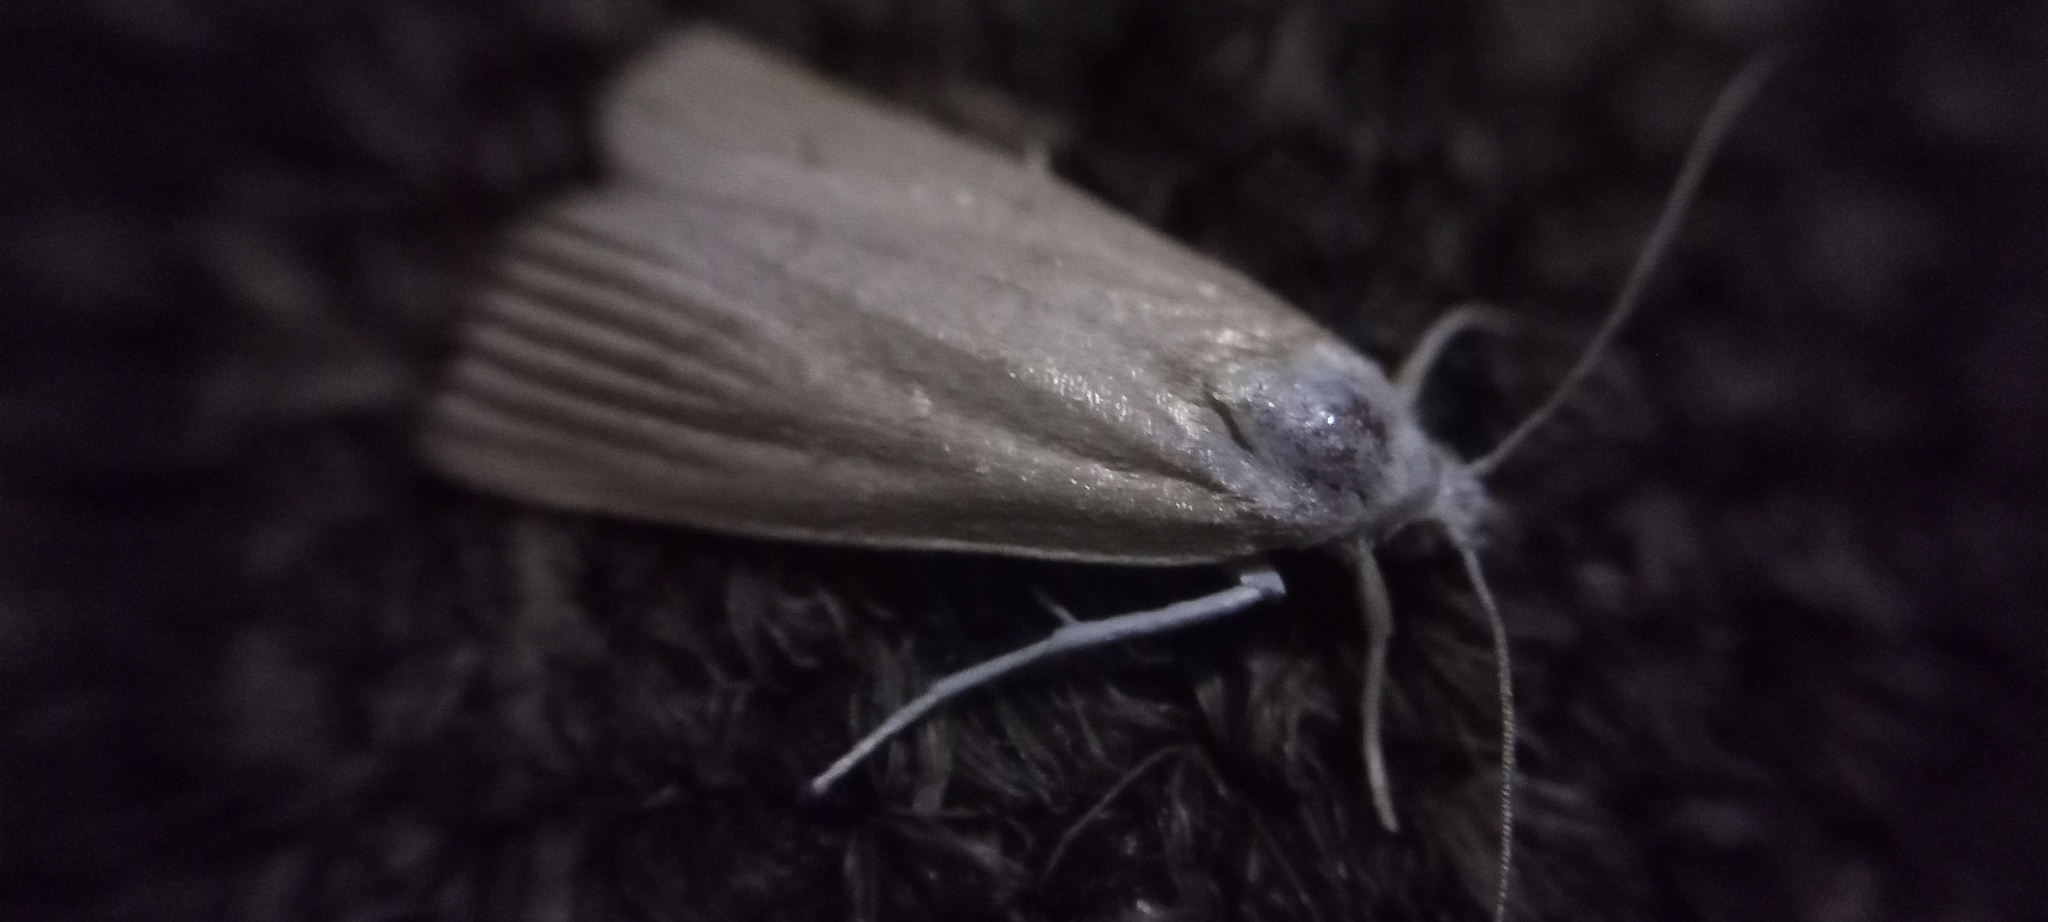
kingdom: Animalia
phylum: Arthropoda
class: Insecta
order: Lepidoptera
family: Crambidae
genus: Calamotropha
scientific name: Calamotropha paludella
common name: Bulrush veneer
